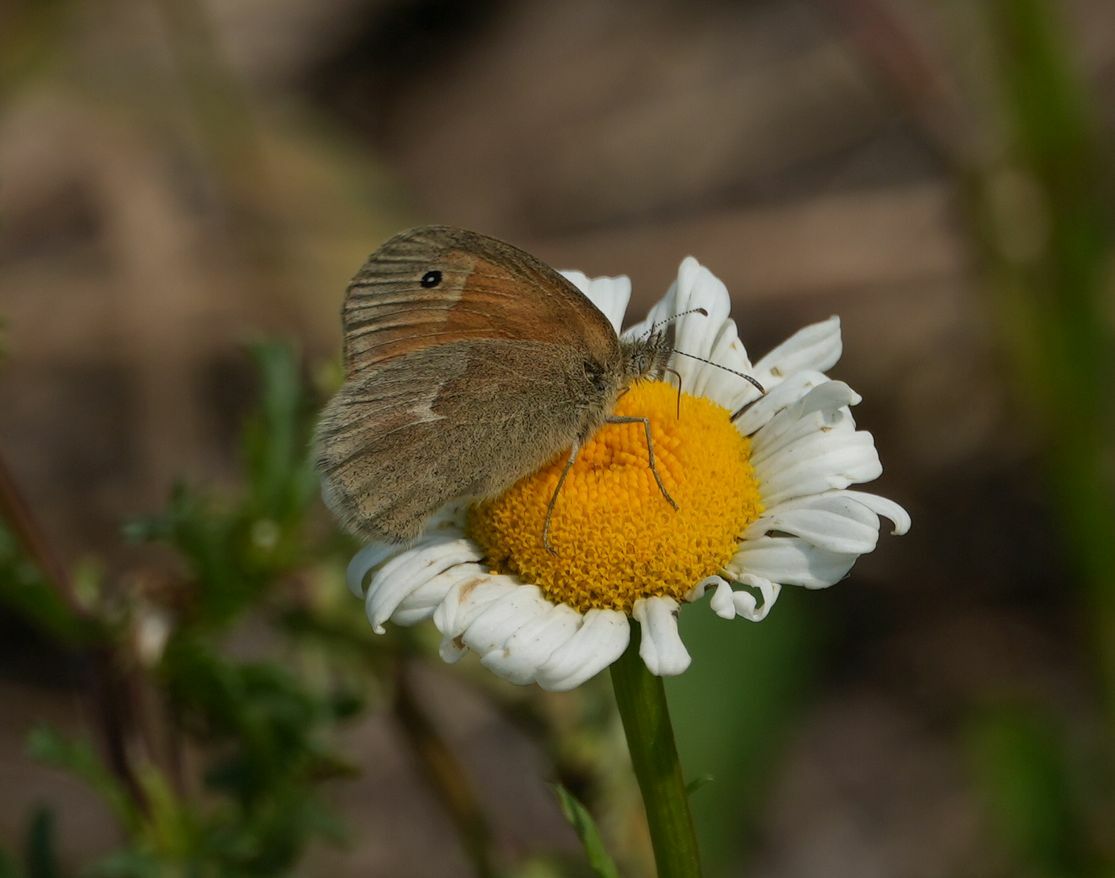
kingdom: Animalia
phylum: Arthropoda
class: Insecta
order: Lepidoptera
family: Nymphalidae
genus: Coenonympha
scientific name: Coenonympha california
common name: Common ringlet
